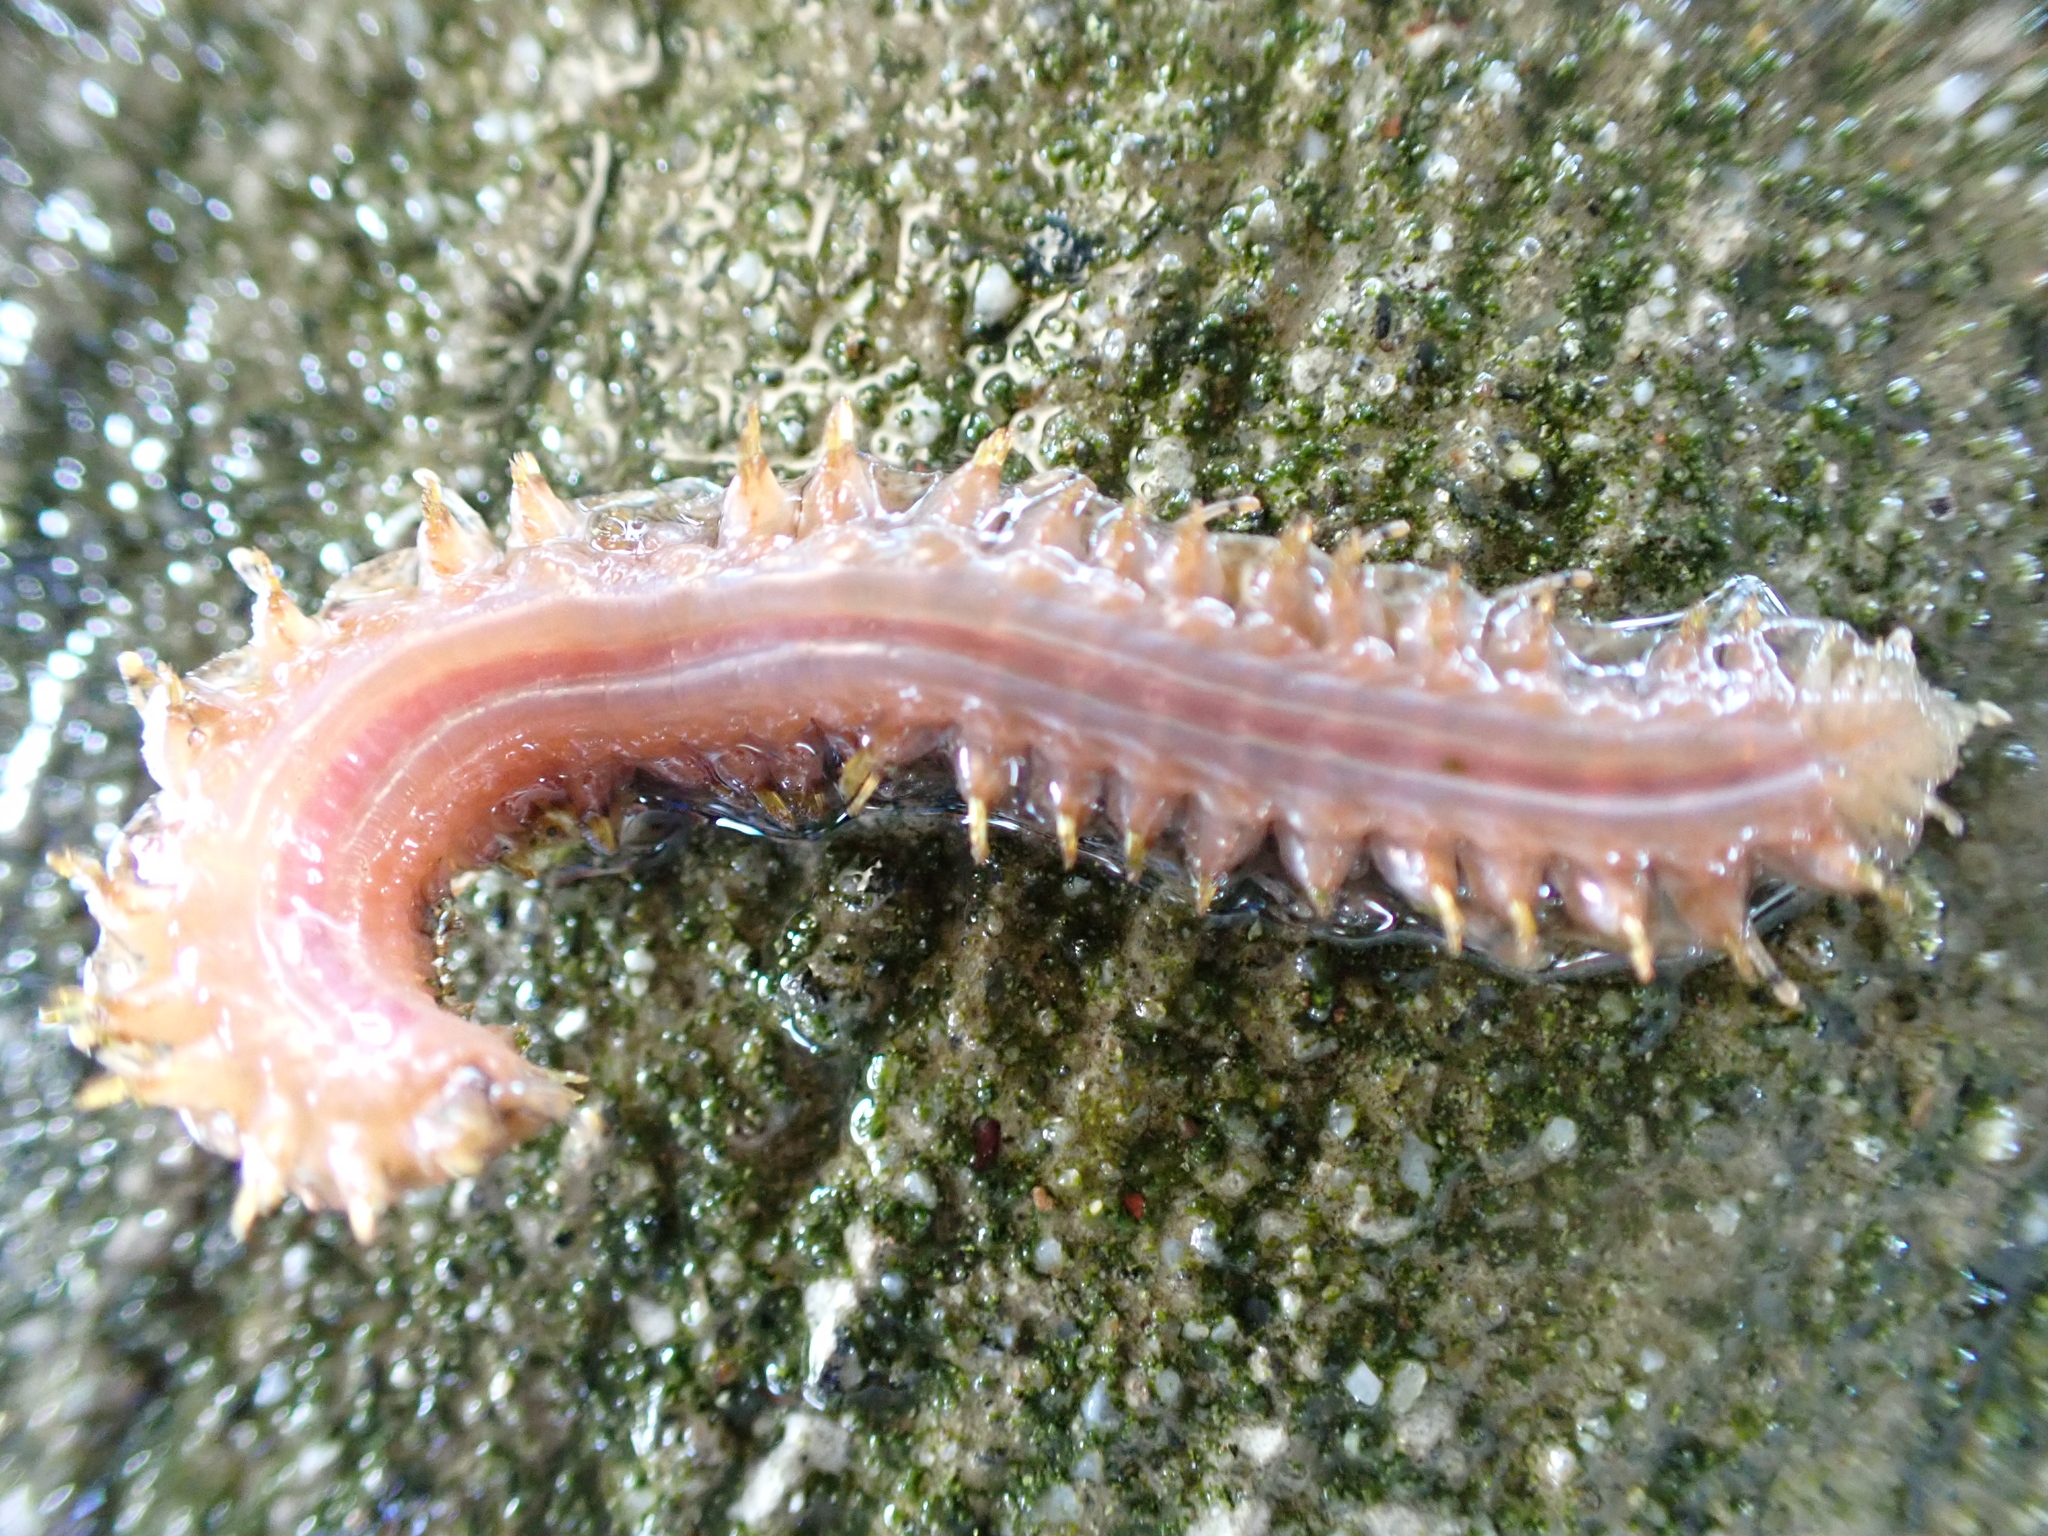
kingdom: Animalia
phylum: Annelida
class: Polychaeta
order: Phyllodocida
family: Polynoidae
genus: Halosydna
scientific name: Halosydna brevisetosa
